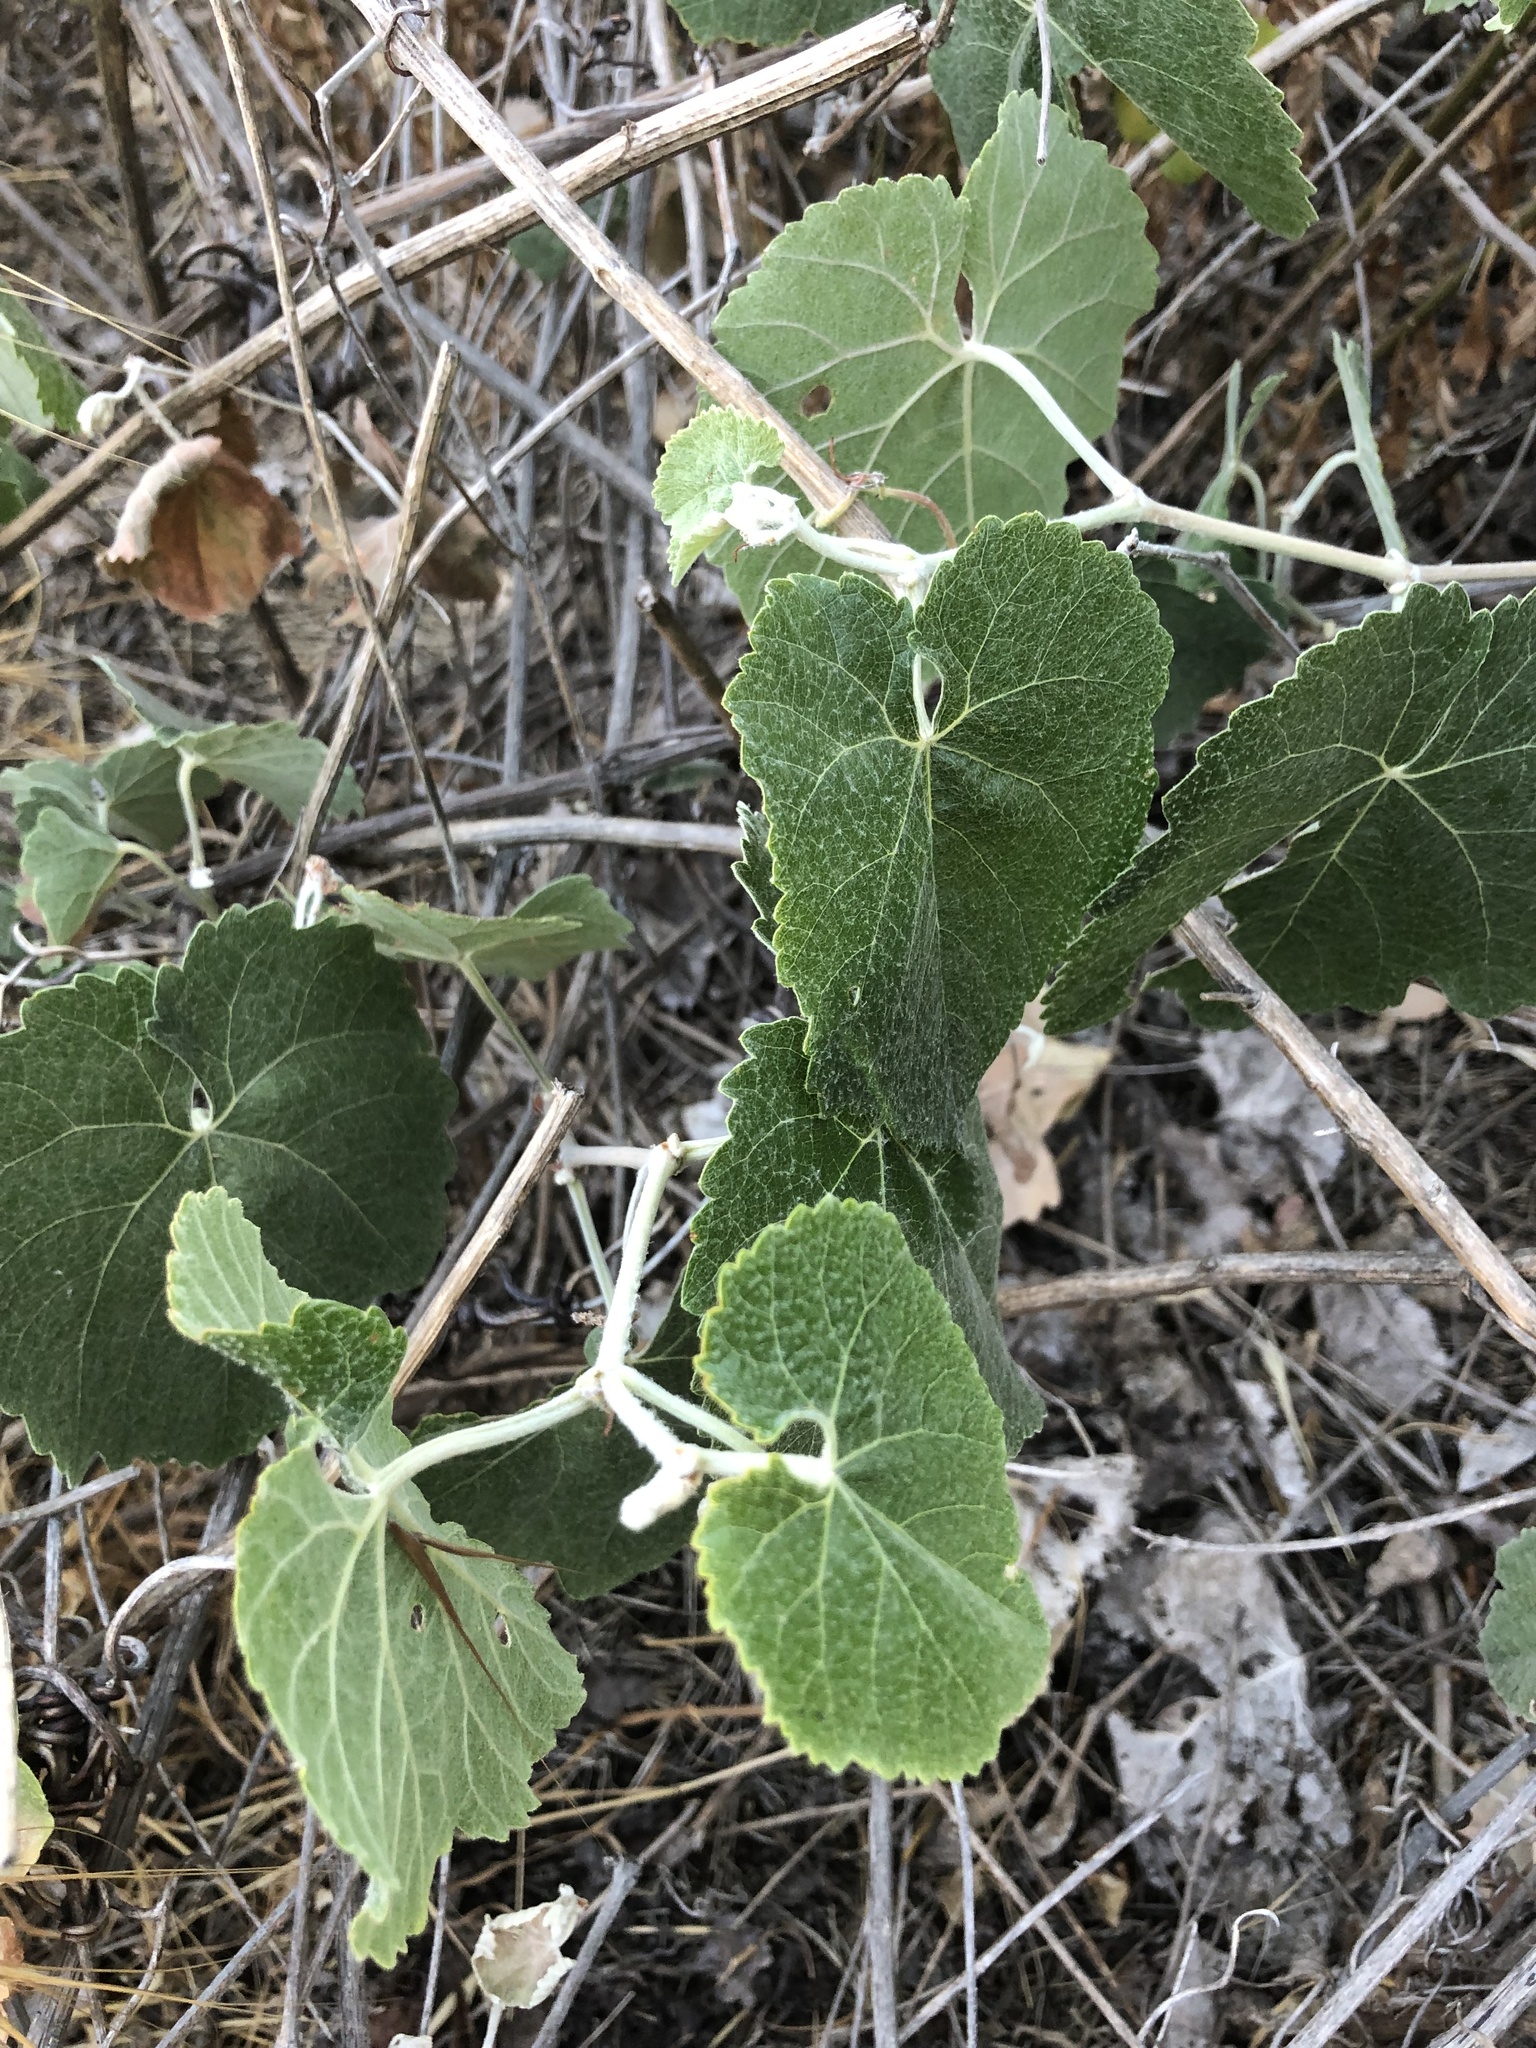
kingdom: Plantae
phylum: Tracheophyta
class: Magnoliopsida
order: Vitales
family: Vitaceae
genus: Vitis
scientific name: Vitis californica
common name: California wild grape
